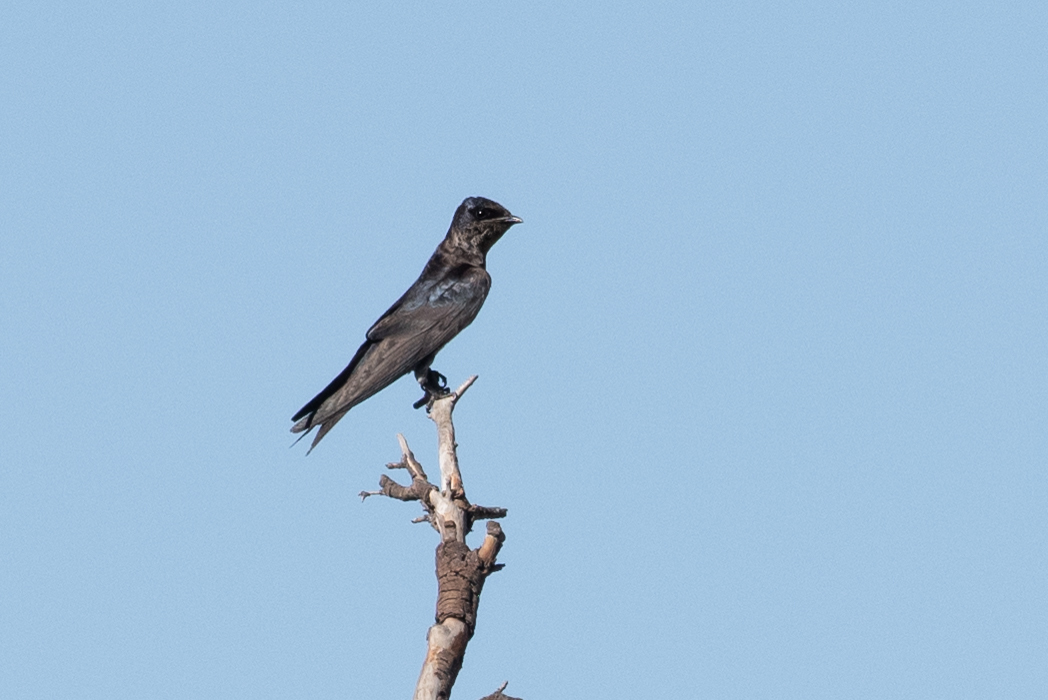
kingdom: Animalia
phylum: Chordata
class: Aves
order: Passeriformes
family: Hirundinidae
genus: Progne
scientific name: Progne subis
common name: Purple martin
